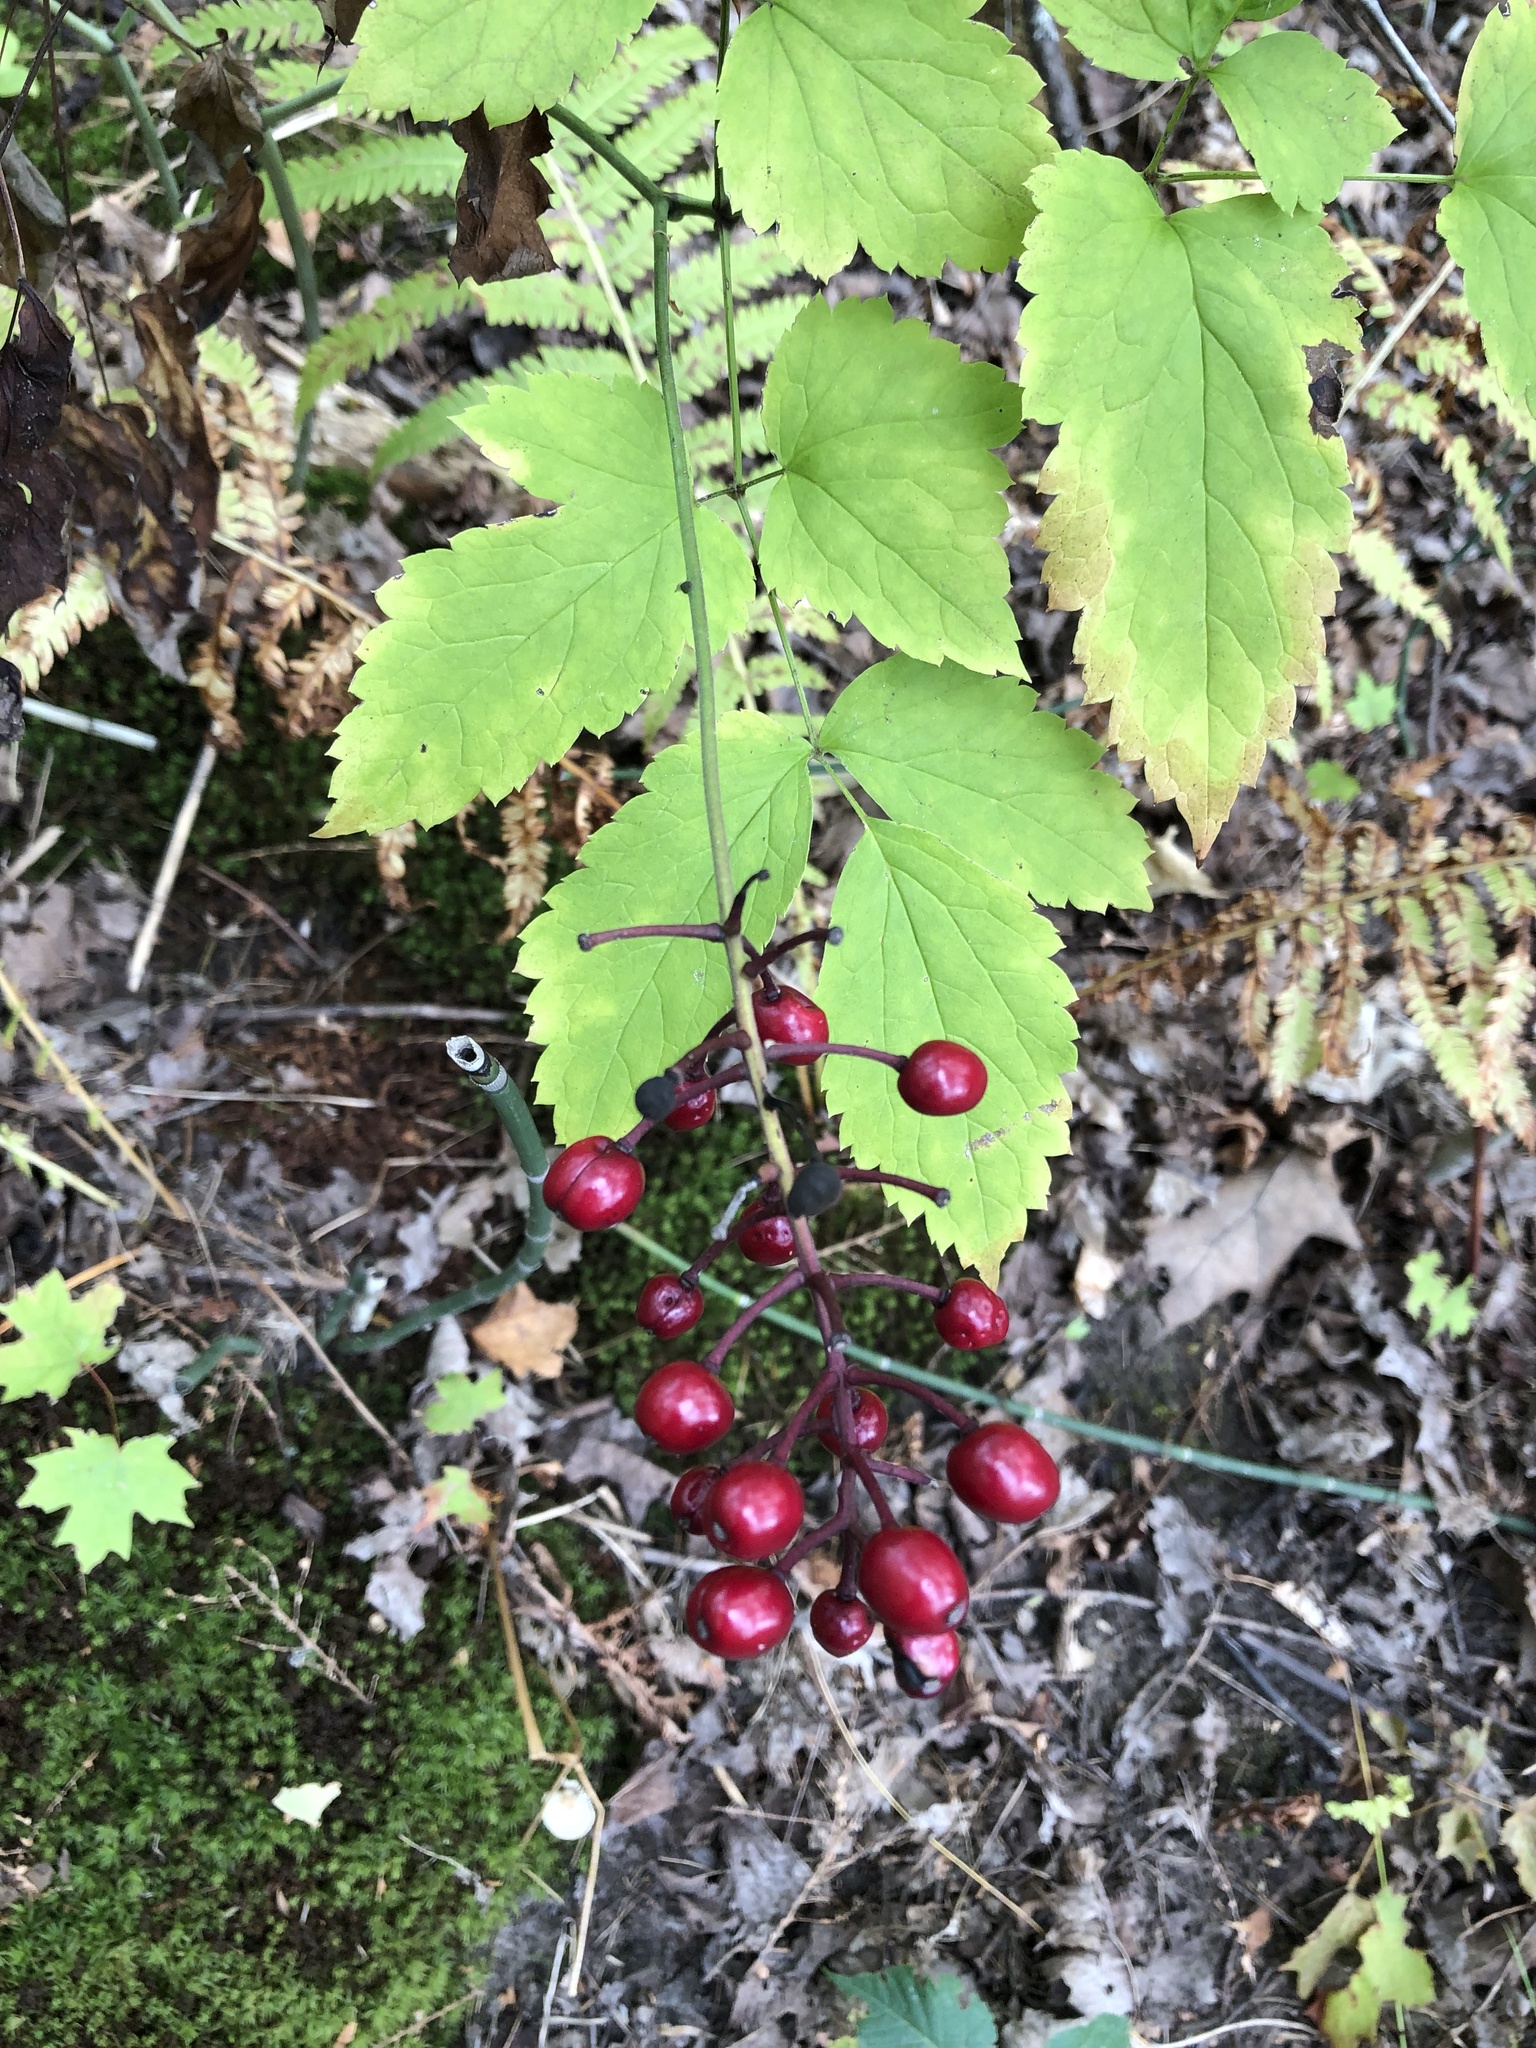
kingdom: Plantae
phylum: Tracheophyta
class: Magnoliopsida
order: Ranunculales
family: Ranunculaceae
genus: Actaea
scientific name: Actaea rubra
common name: Red baneberry
